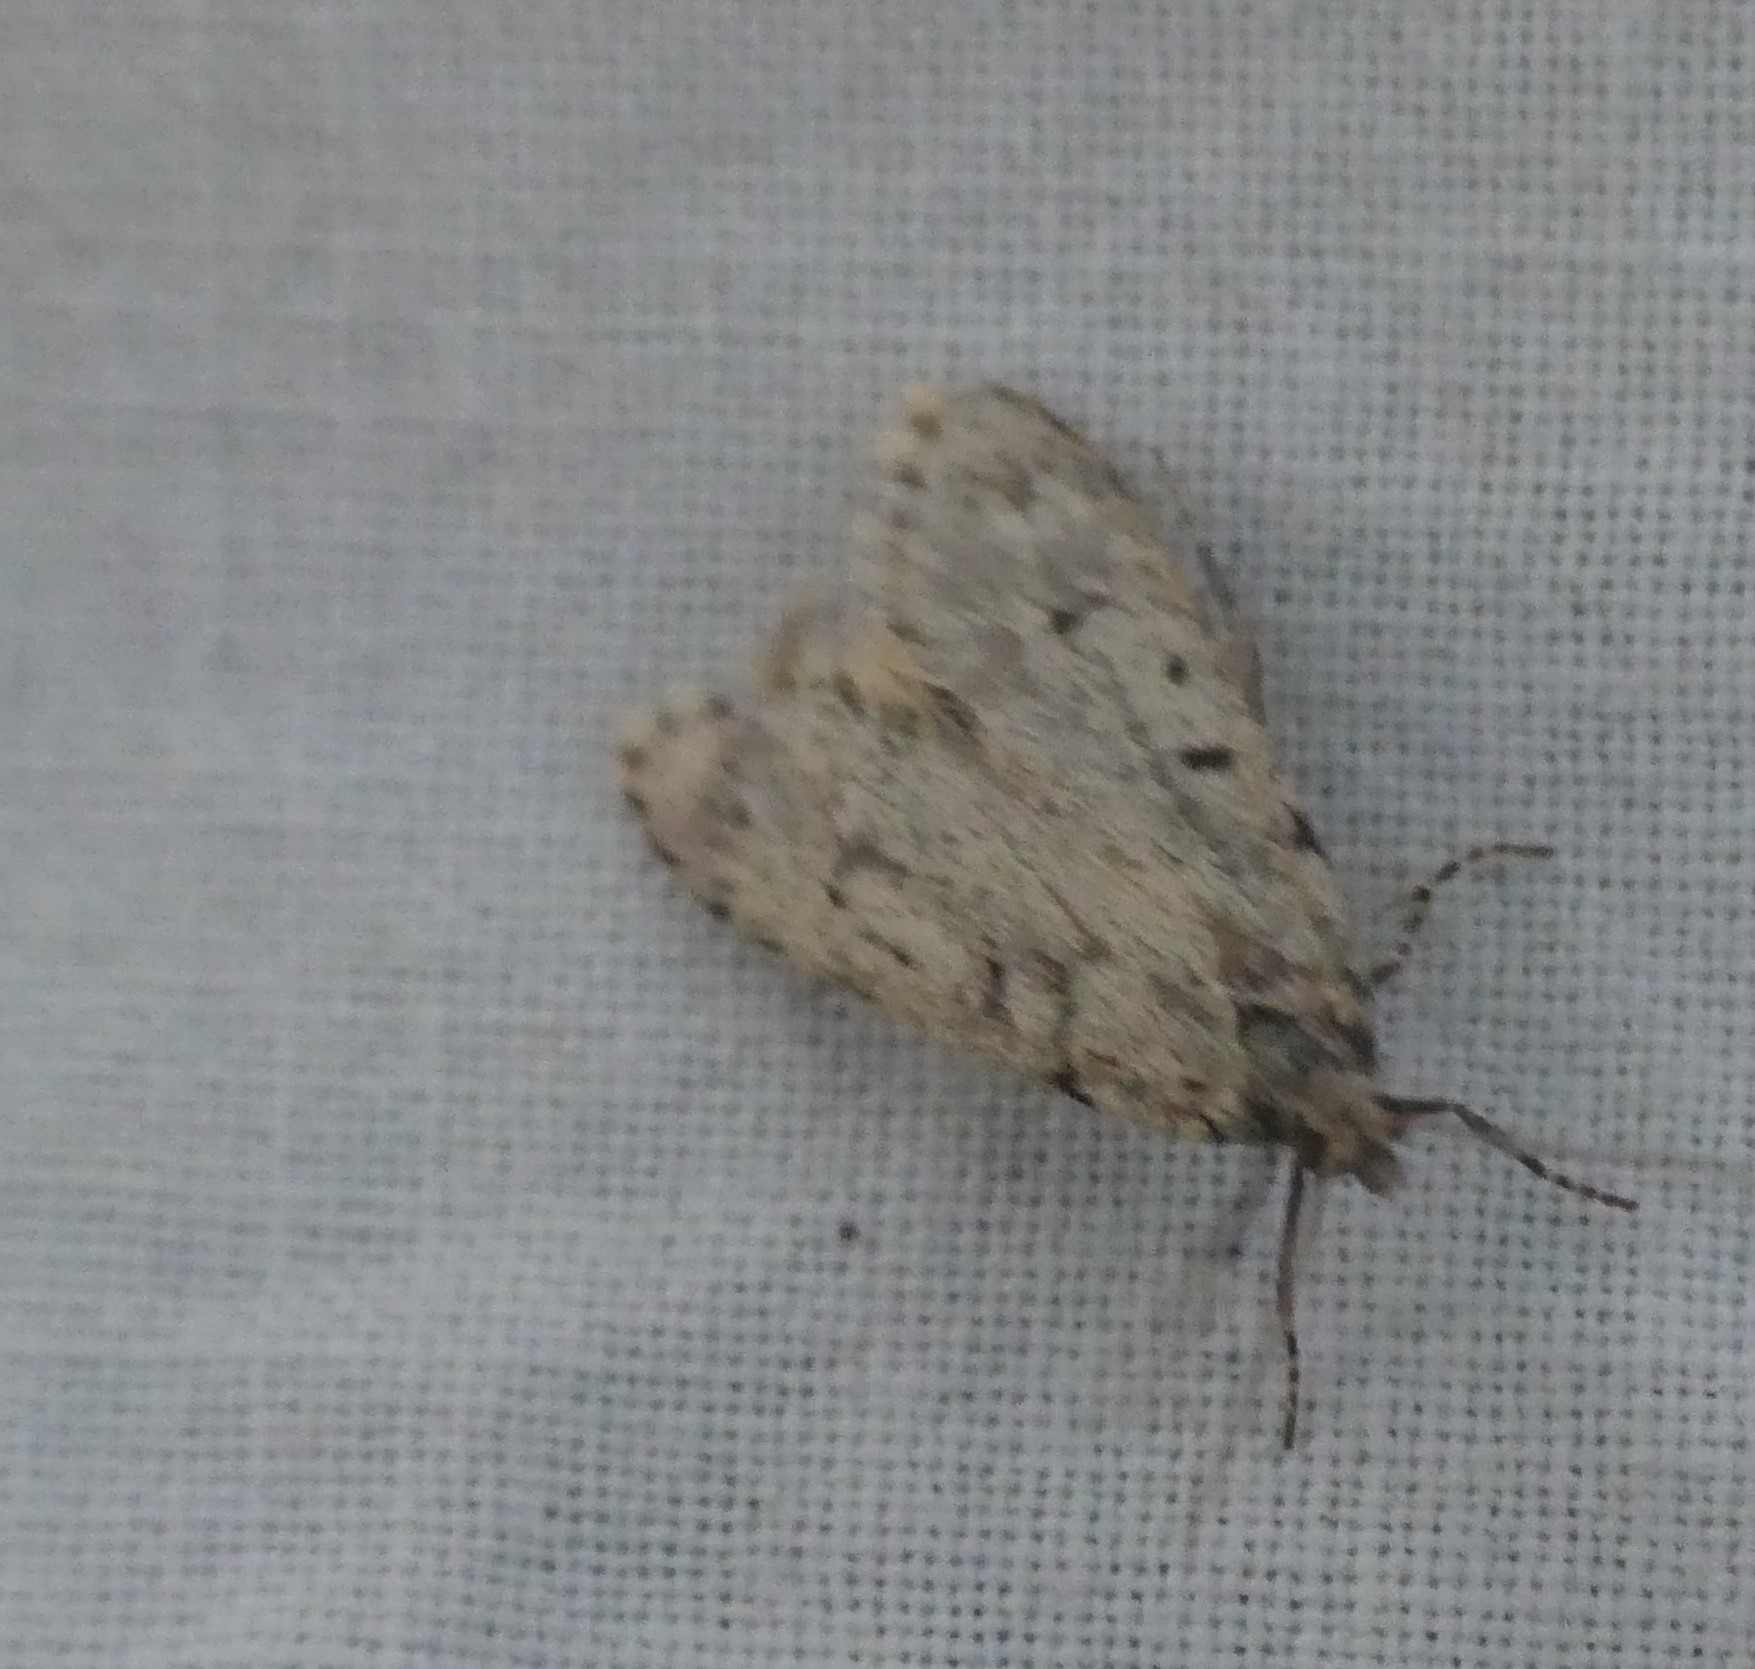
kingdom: Animalia
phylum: Arthropoda
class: Insecta
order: Lepidoptera
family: Lypusidae
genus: Diurnea
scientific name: Diurnea fagella
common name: March tubic
